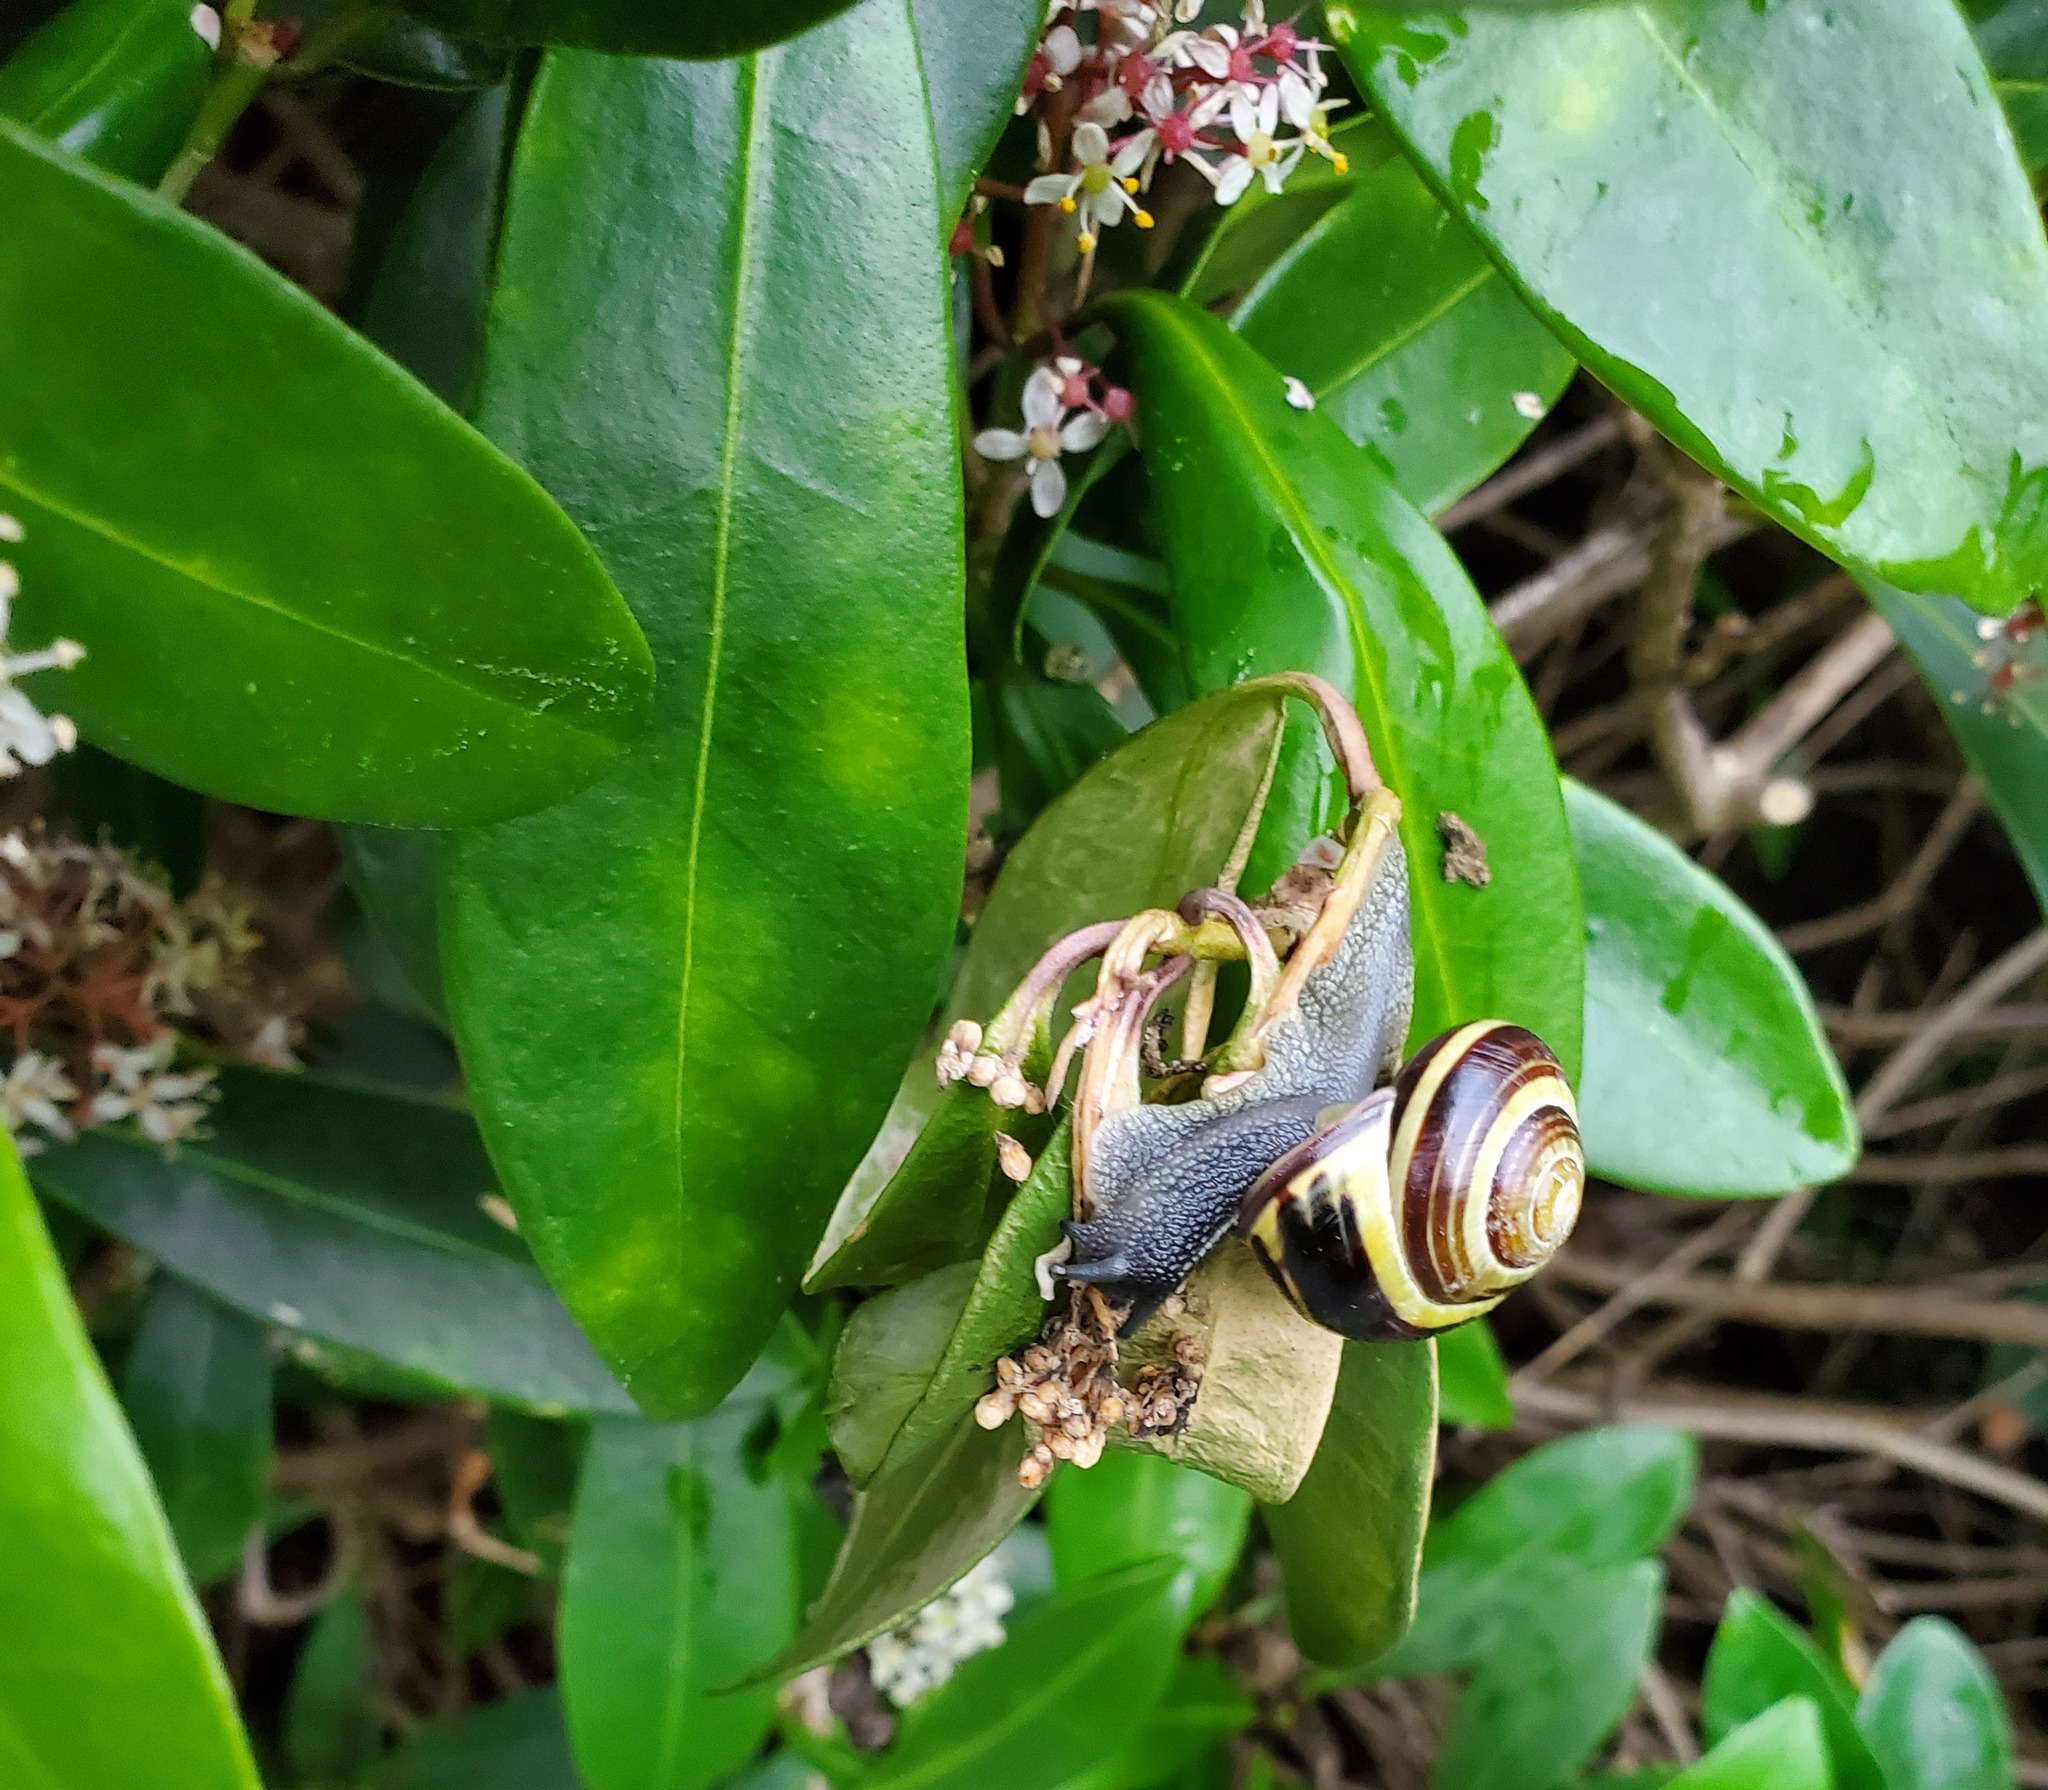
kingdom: Animalia
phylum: Mollusca
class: Gastropoda
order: Stylommatophora
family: Helicidae
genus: Cepaea
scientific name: Cepaea nemoralis
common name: Grovesnail
